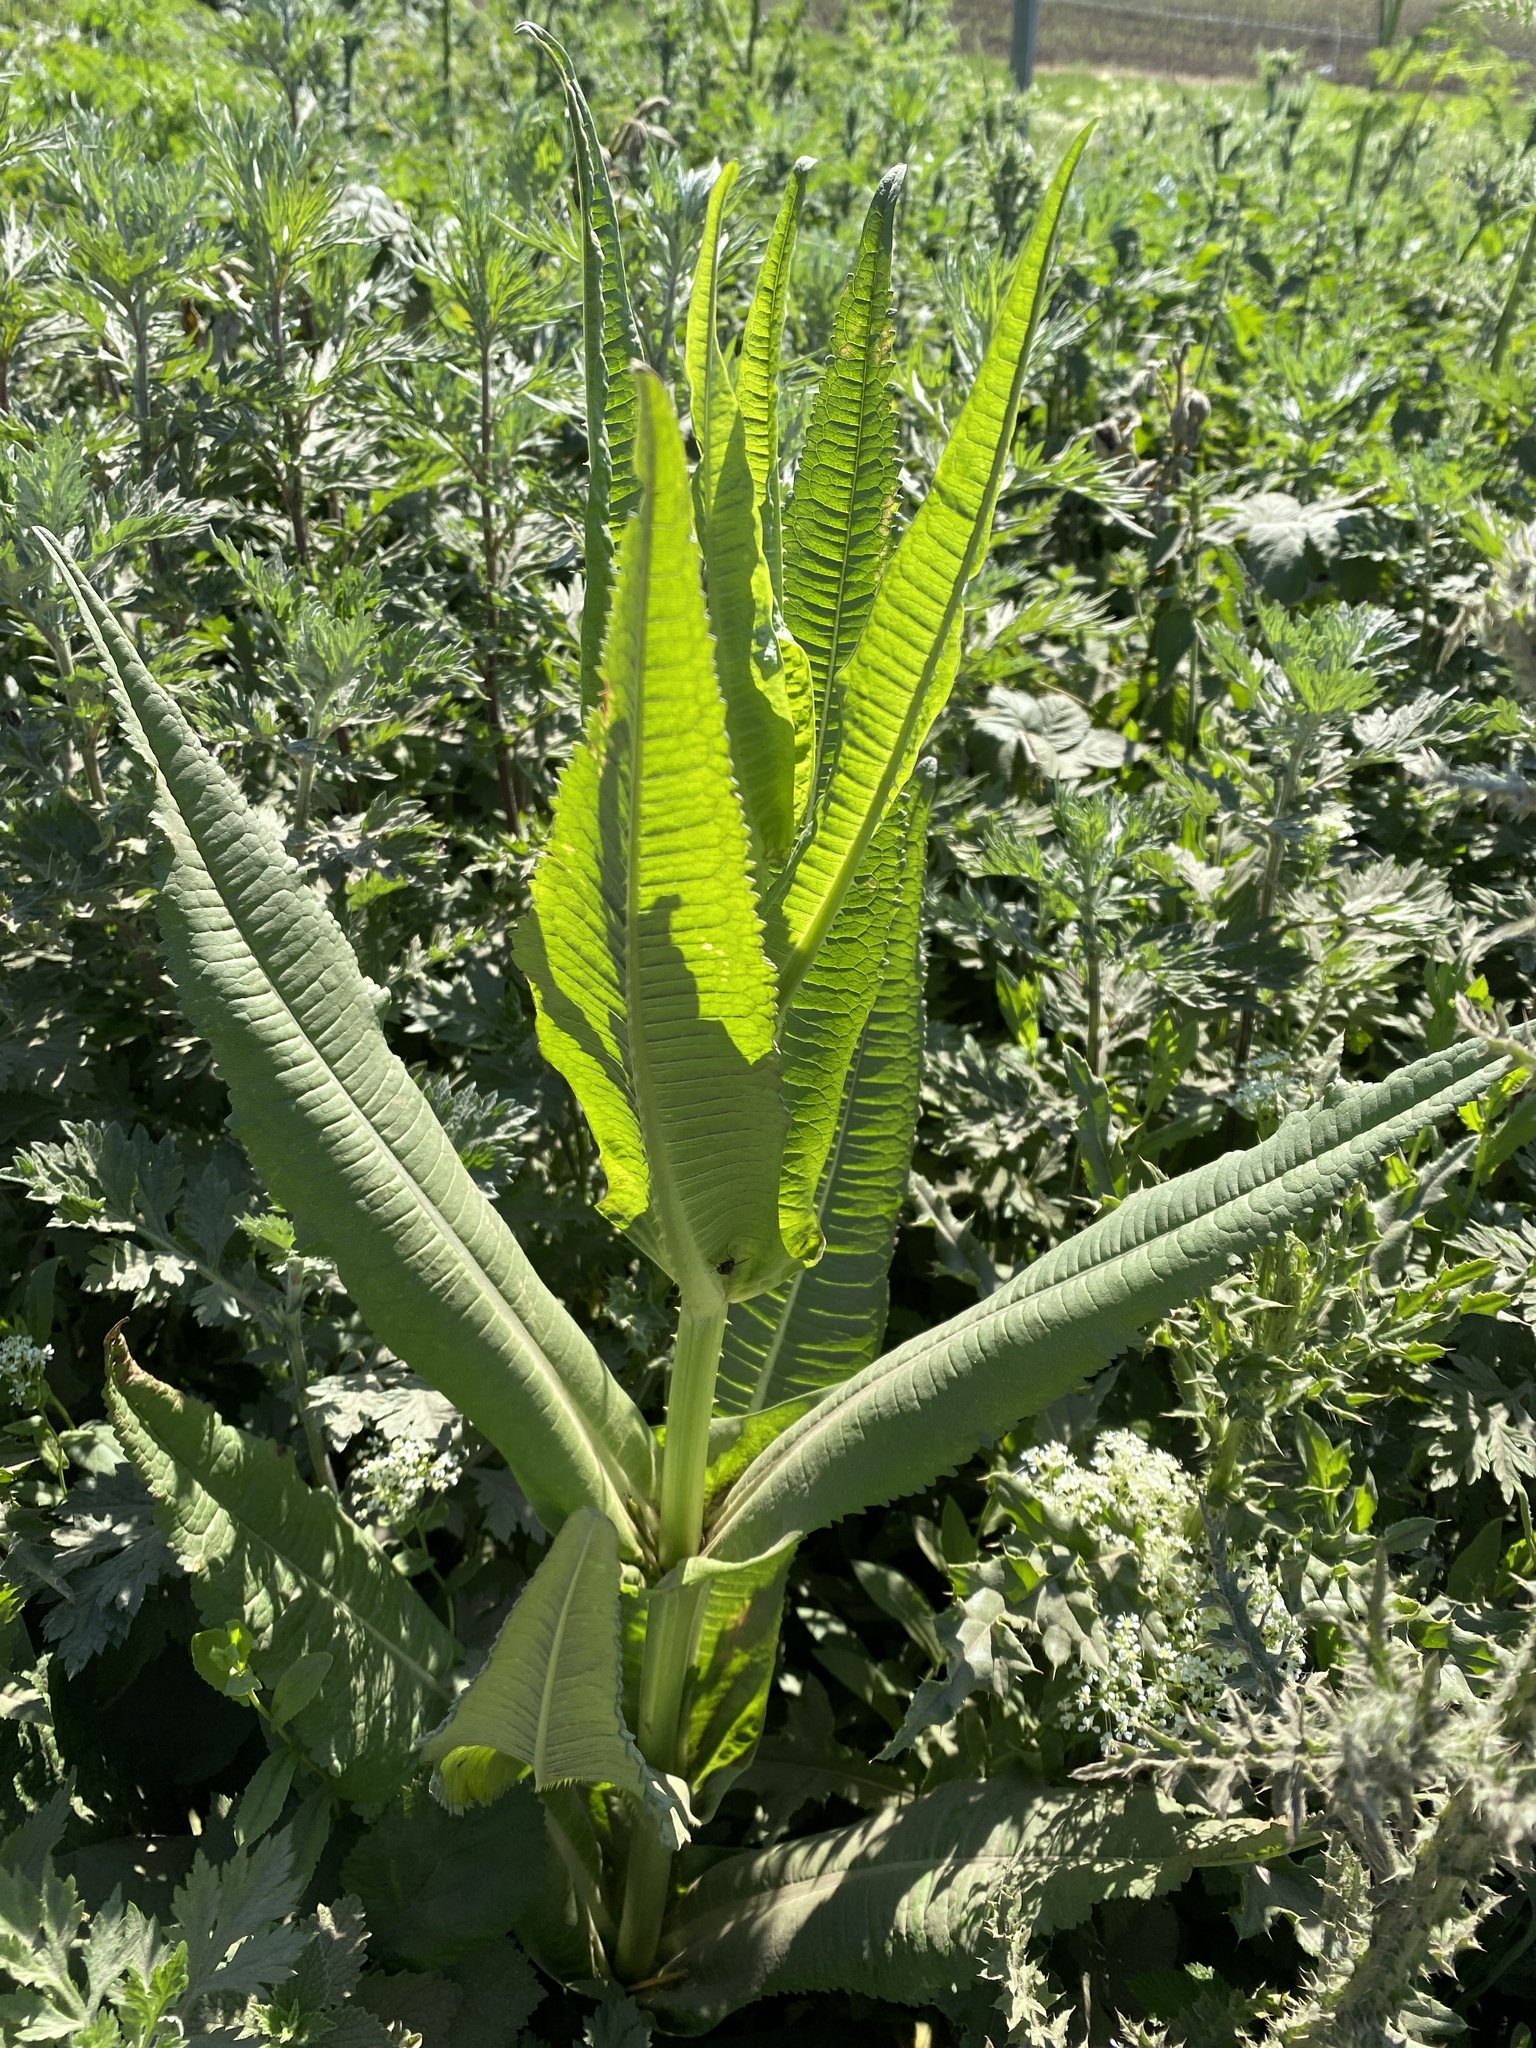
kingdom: Plantae
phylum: Tracheophyta
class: Magnoliopsida
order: Dipsacales
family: Caprifoliaceae
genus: Dipsacus
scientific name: Dipsacus fullonum
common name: Teasel
